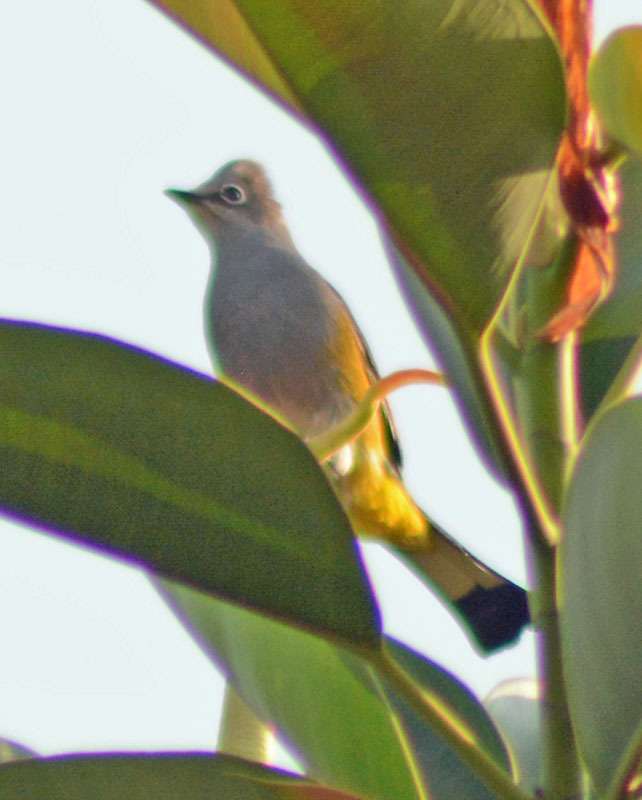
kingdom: Animalia
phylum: Chordata
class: Aves
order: Passeriformes
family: Ptilogonatidae
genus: Ptilogonys
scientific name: Ptilogonys cinereus
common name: Gray silky-flycatcher
